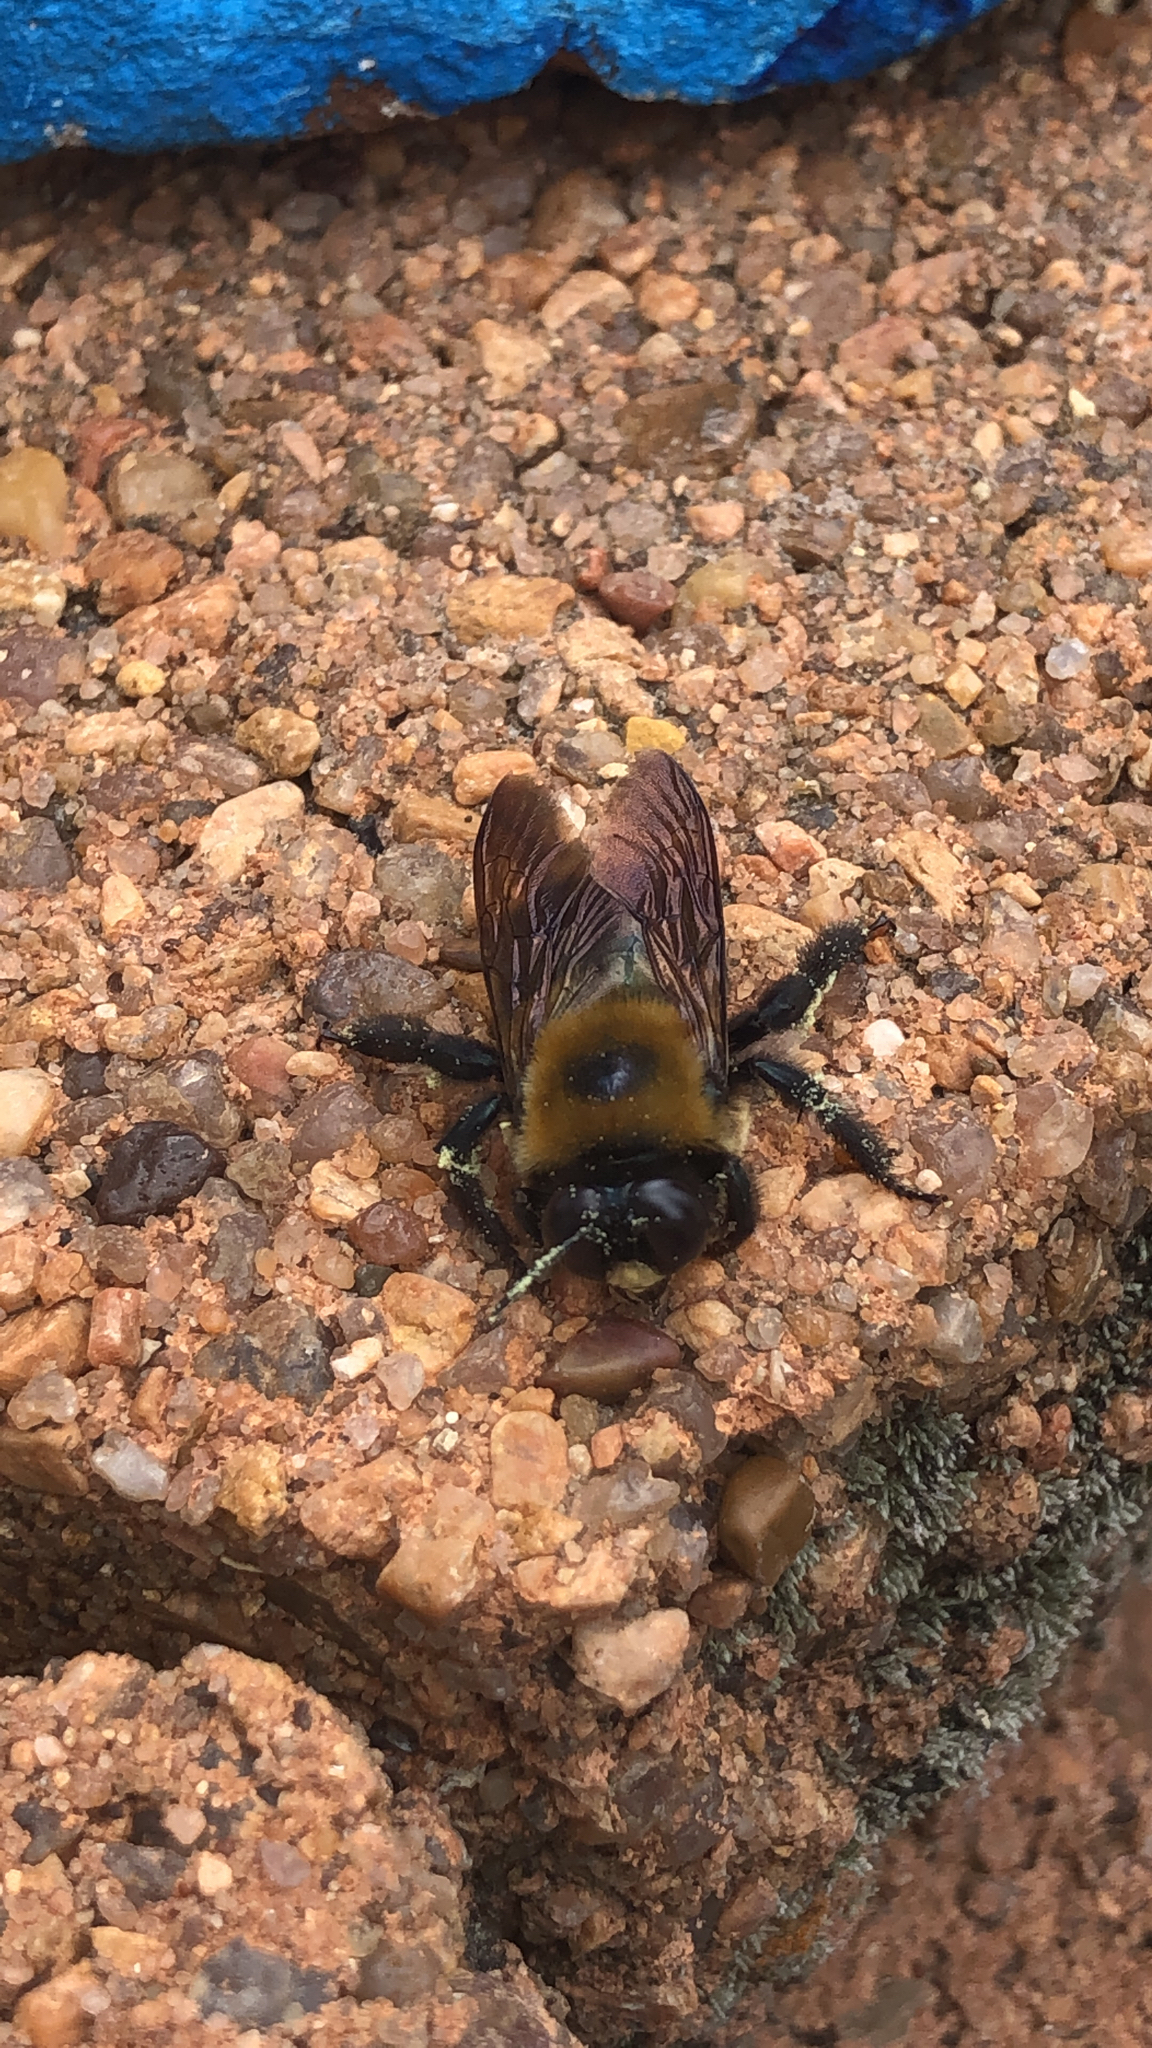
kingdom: Animalia
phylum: Arthropoda
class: Insecta
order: Hymenoptera
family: Apidae
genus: Xylocopa
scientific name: Xylocopa virginica
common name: Carpenter bee
